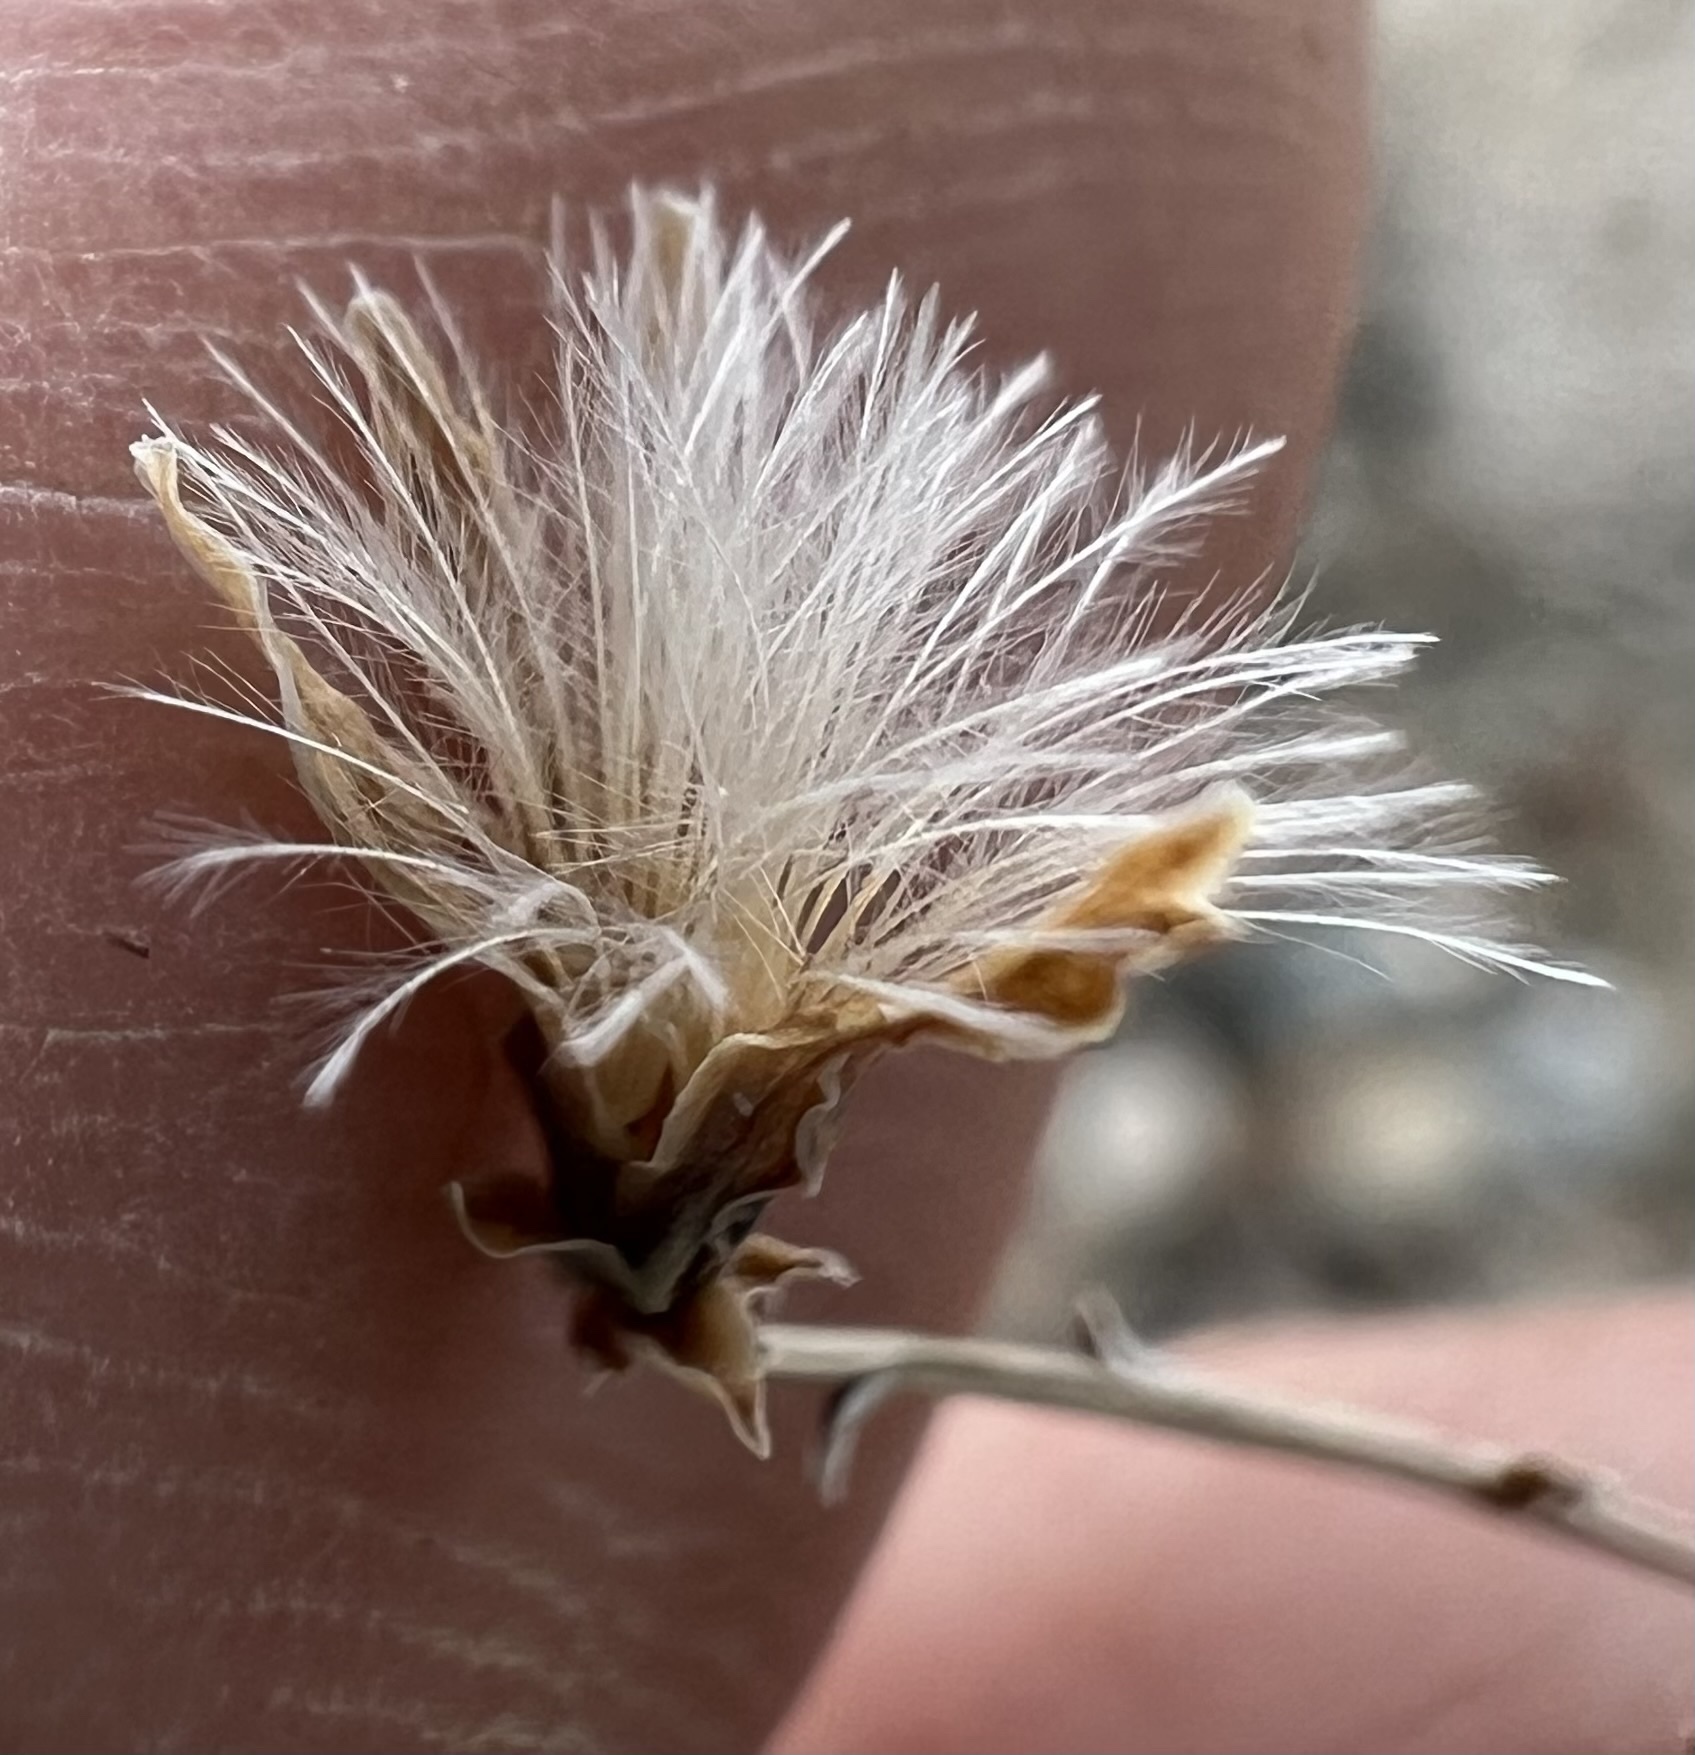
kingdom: Plantae
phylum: Tracheophyta
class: Magnoliopsida
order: Asterales
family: Asteraceae
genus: Stephanomeria
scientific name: Stephanomeria pauciflora
